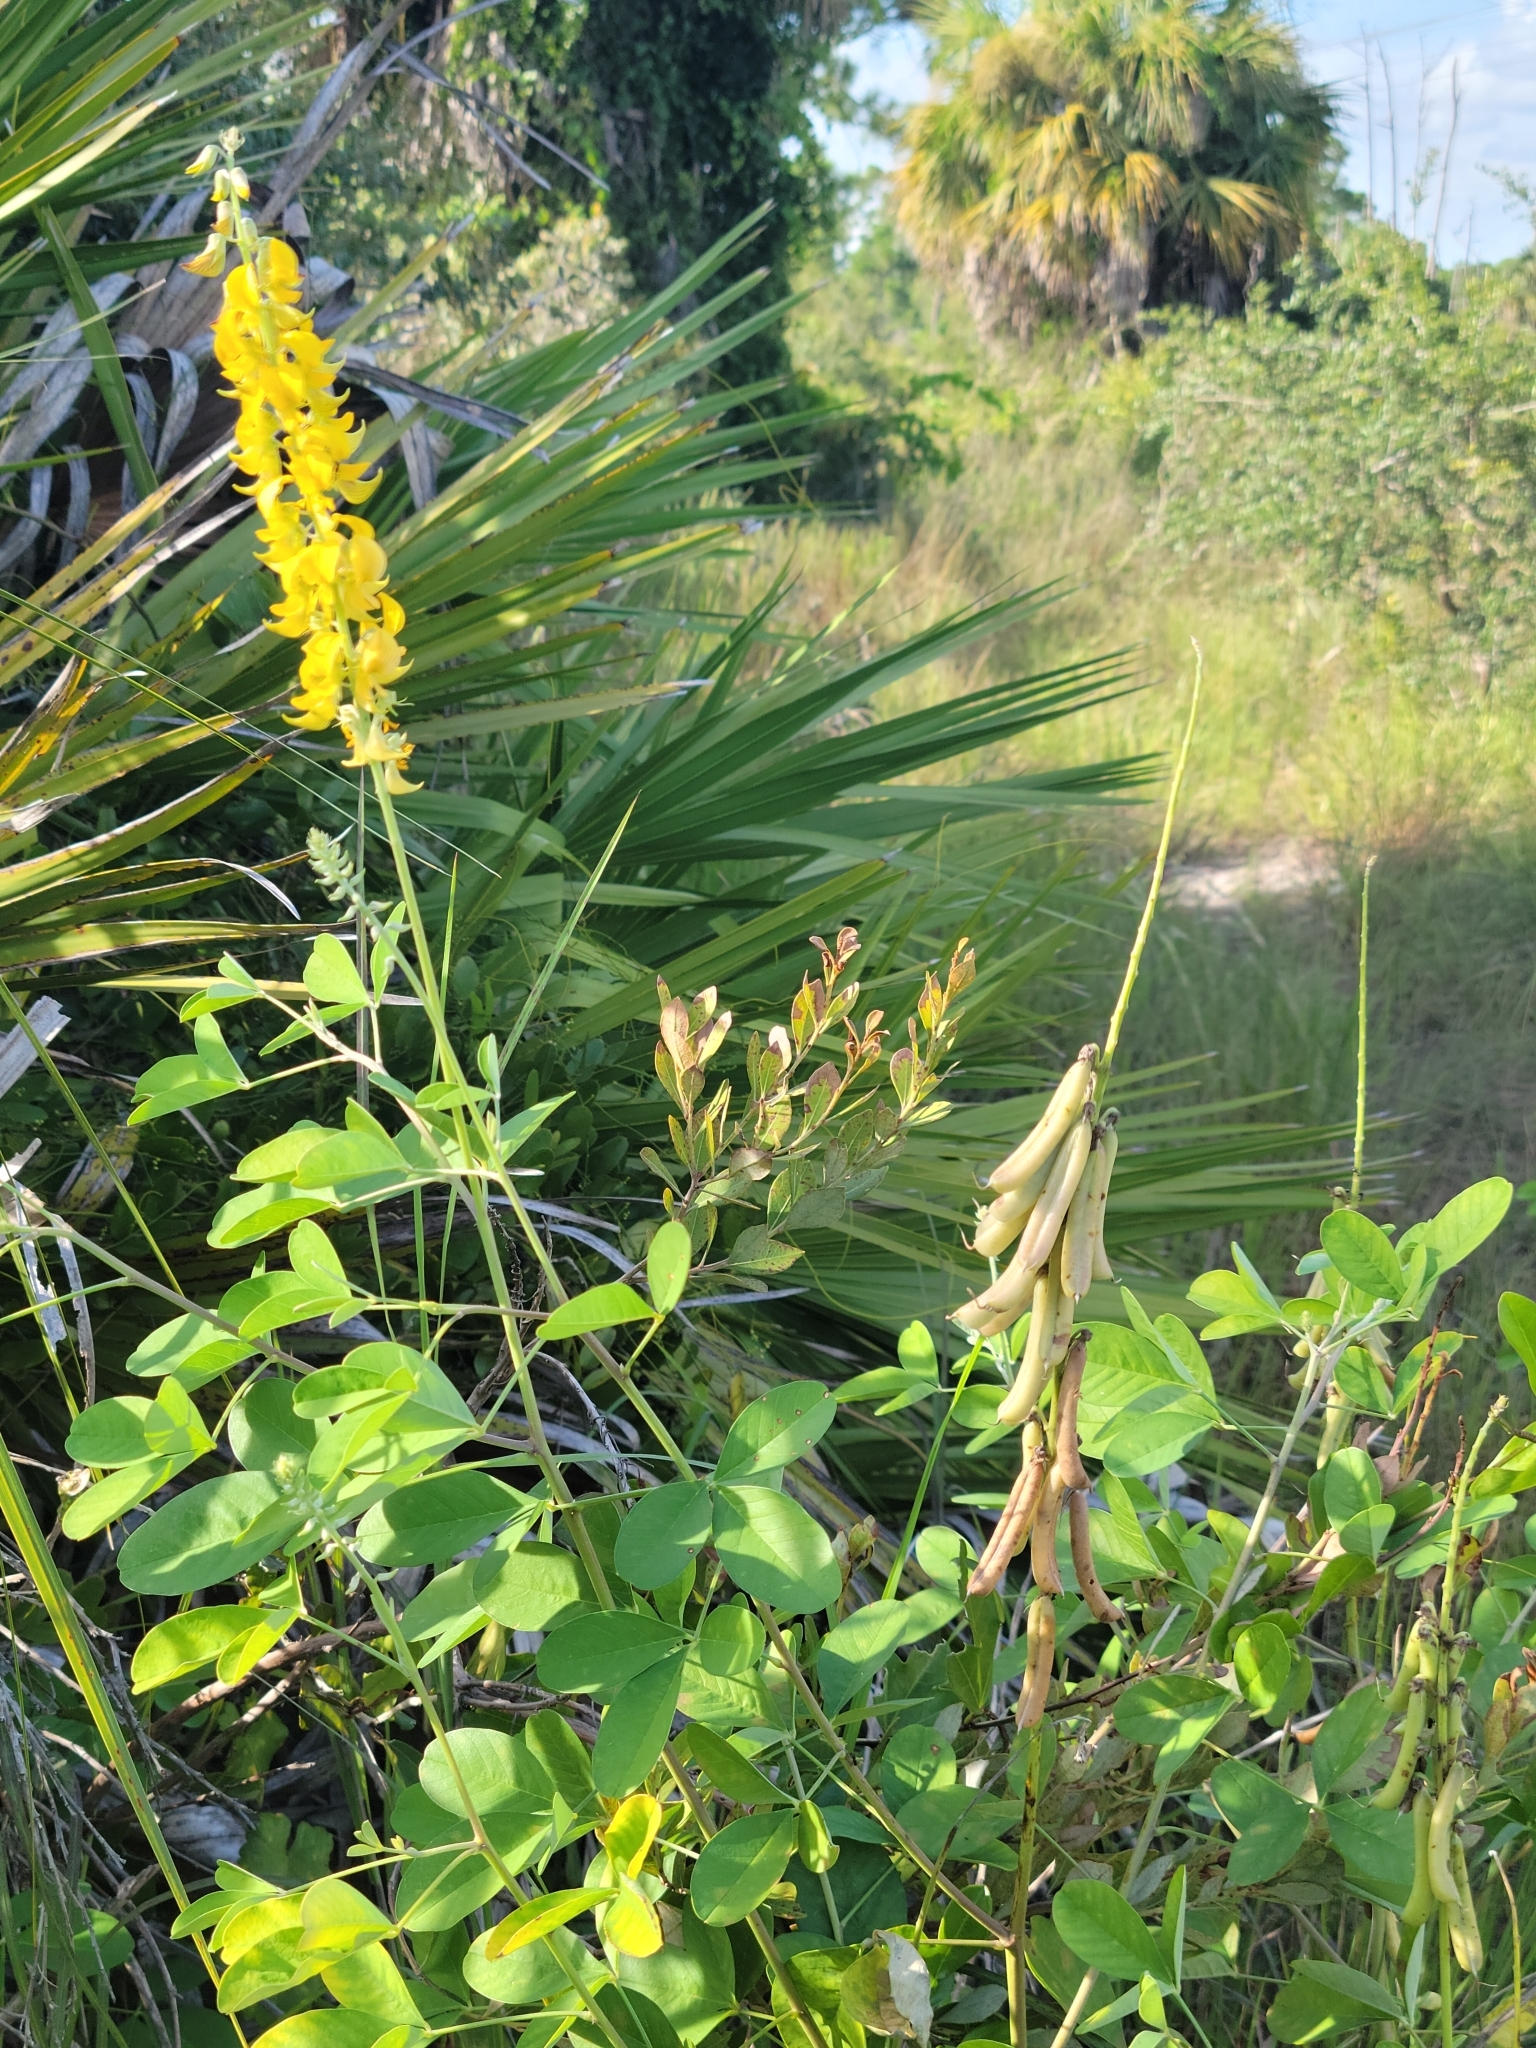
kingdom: Plantae
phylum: Tracheophyta
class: Magnoliopsida
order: Fabales
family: Fabaceae
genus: Crotalaria
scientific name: Crotalaria pallida
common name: Smooth rattlebox
